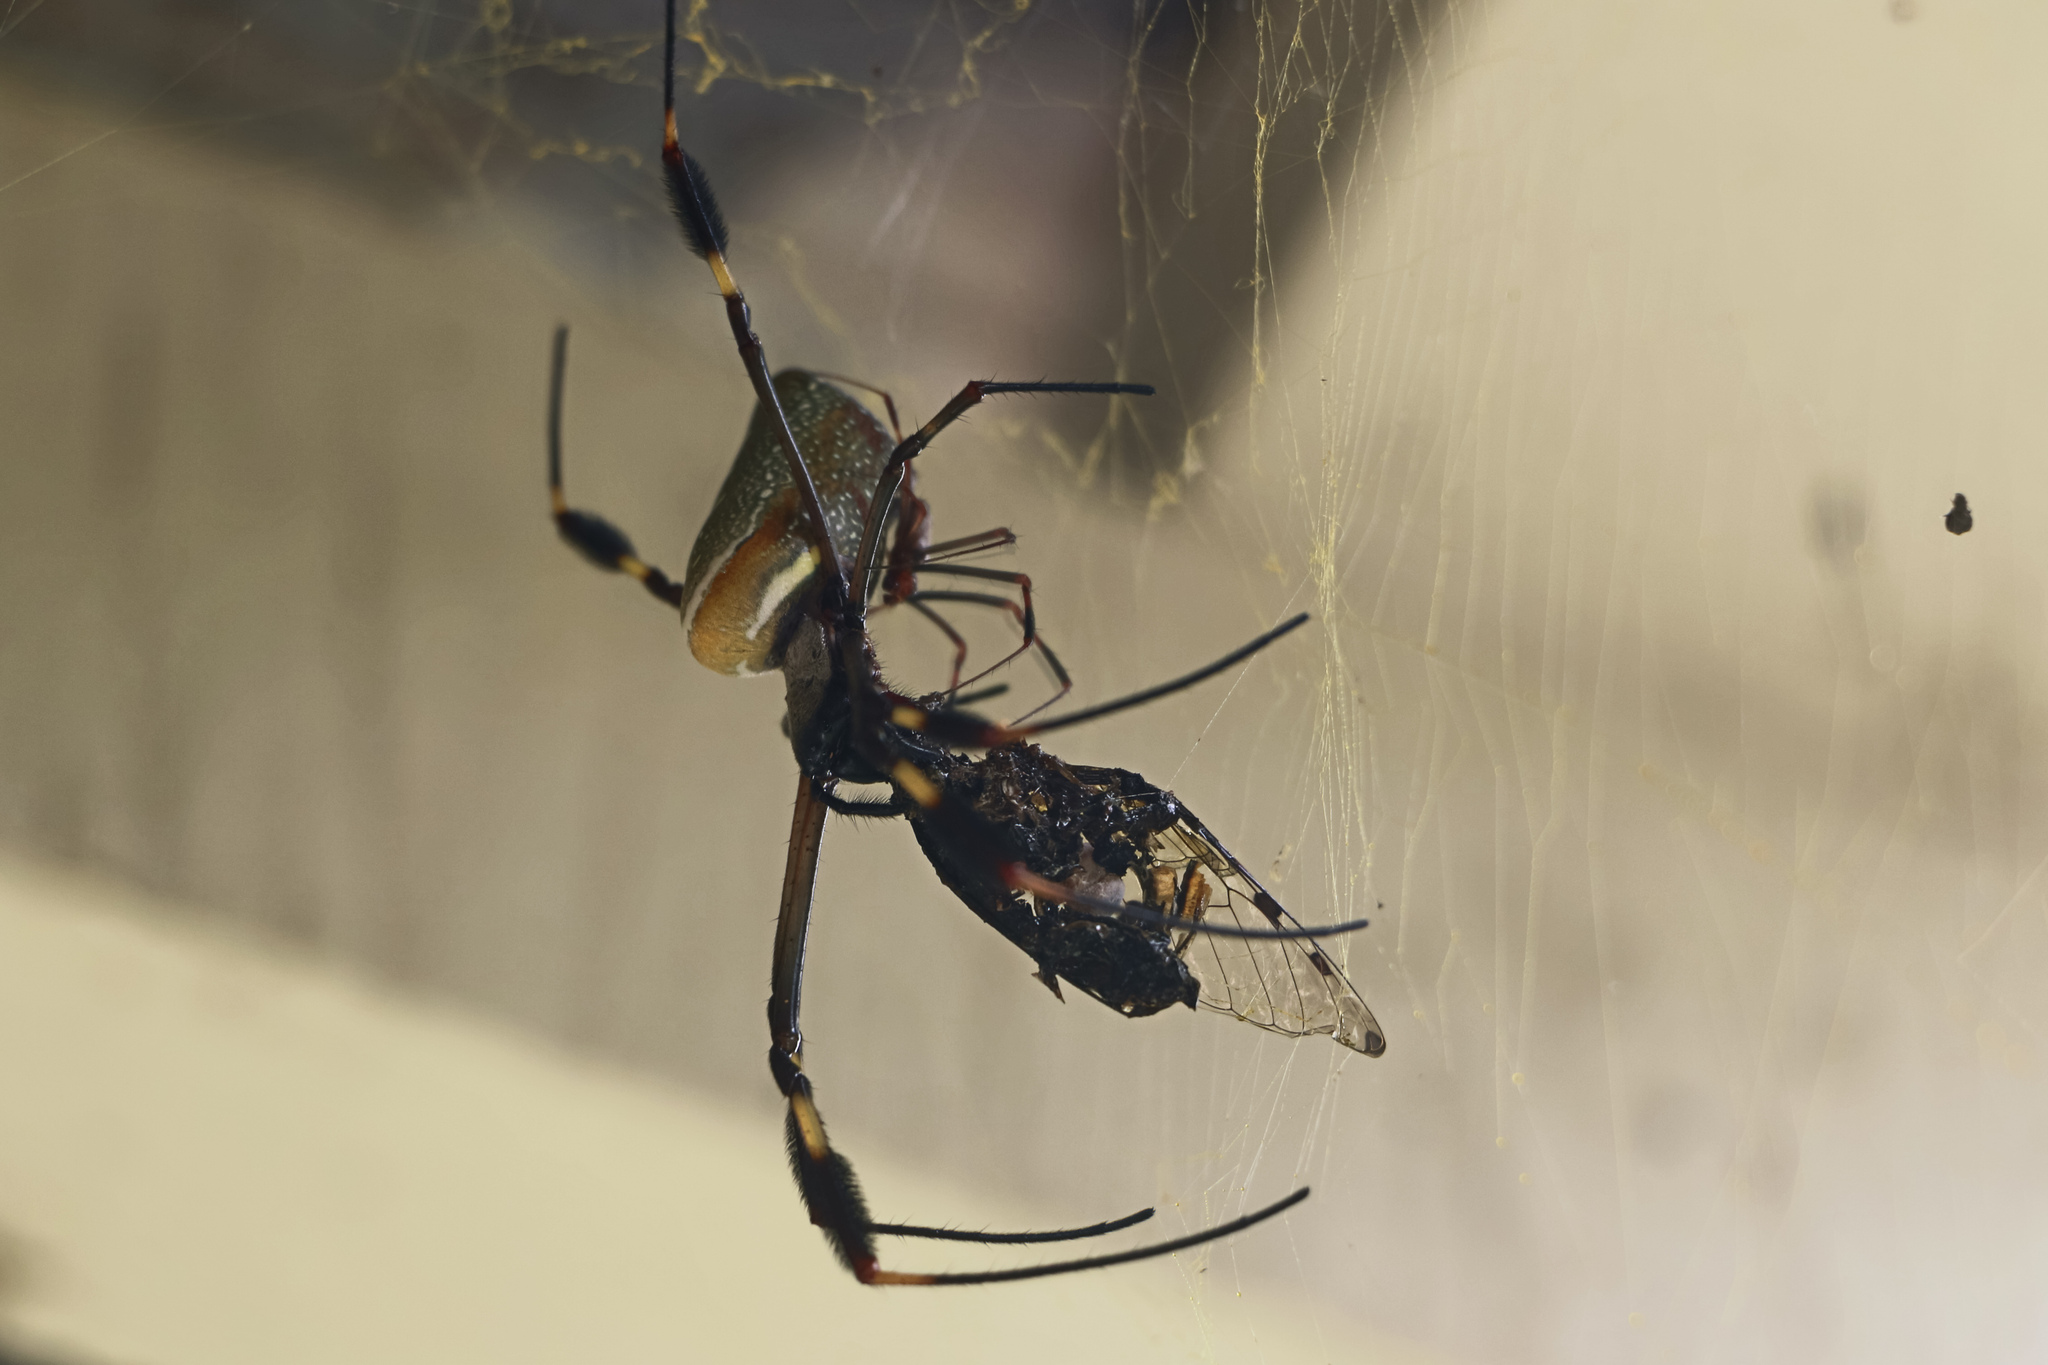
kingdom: Animalia
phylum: Arthropoda
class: Arachnida
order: Araneae
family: Araneidae
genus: Trichonephila
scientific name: Trichonephila clavipes
